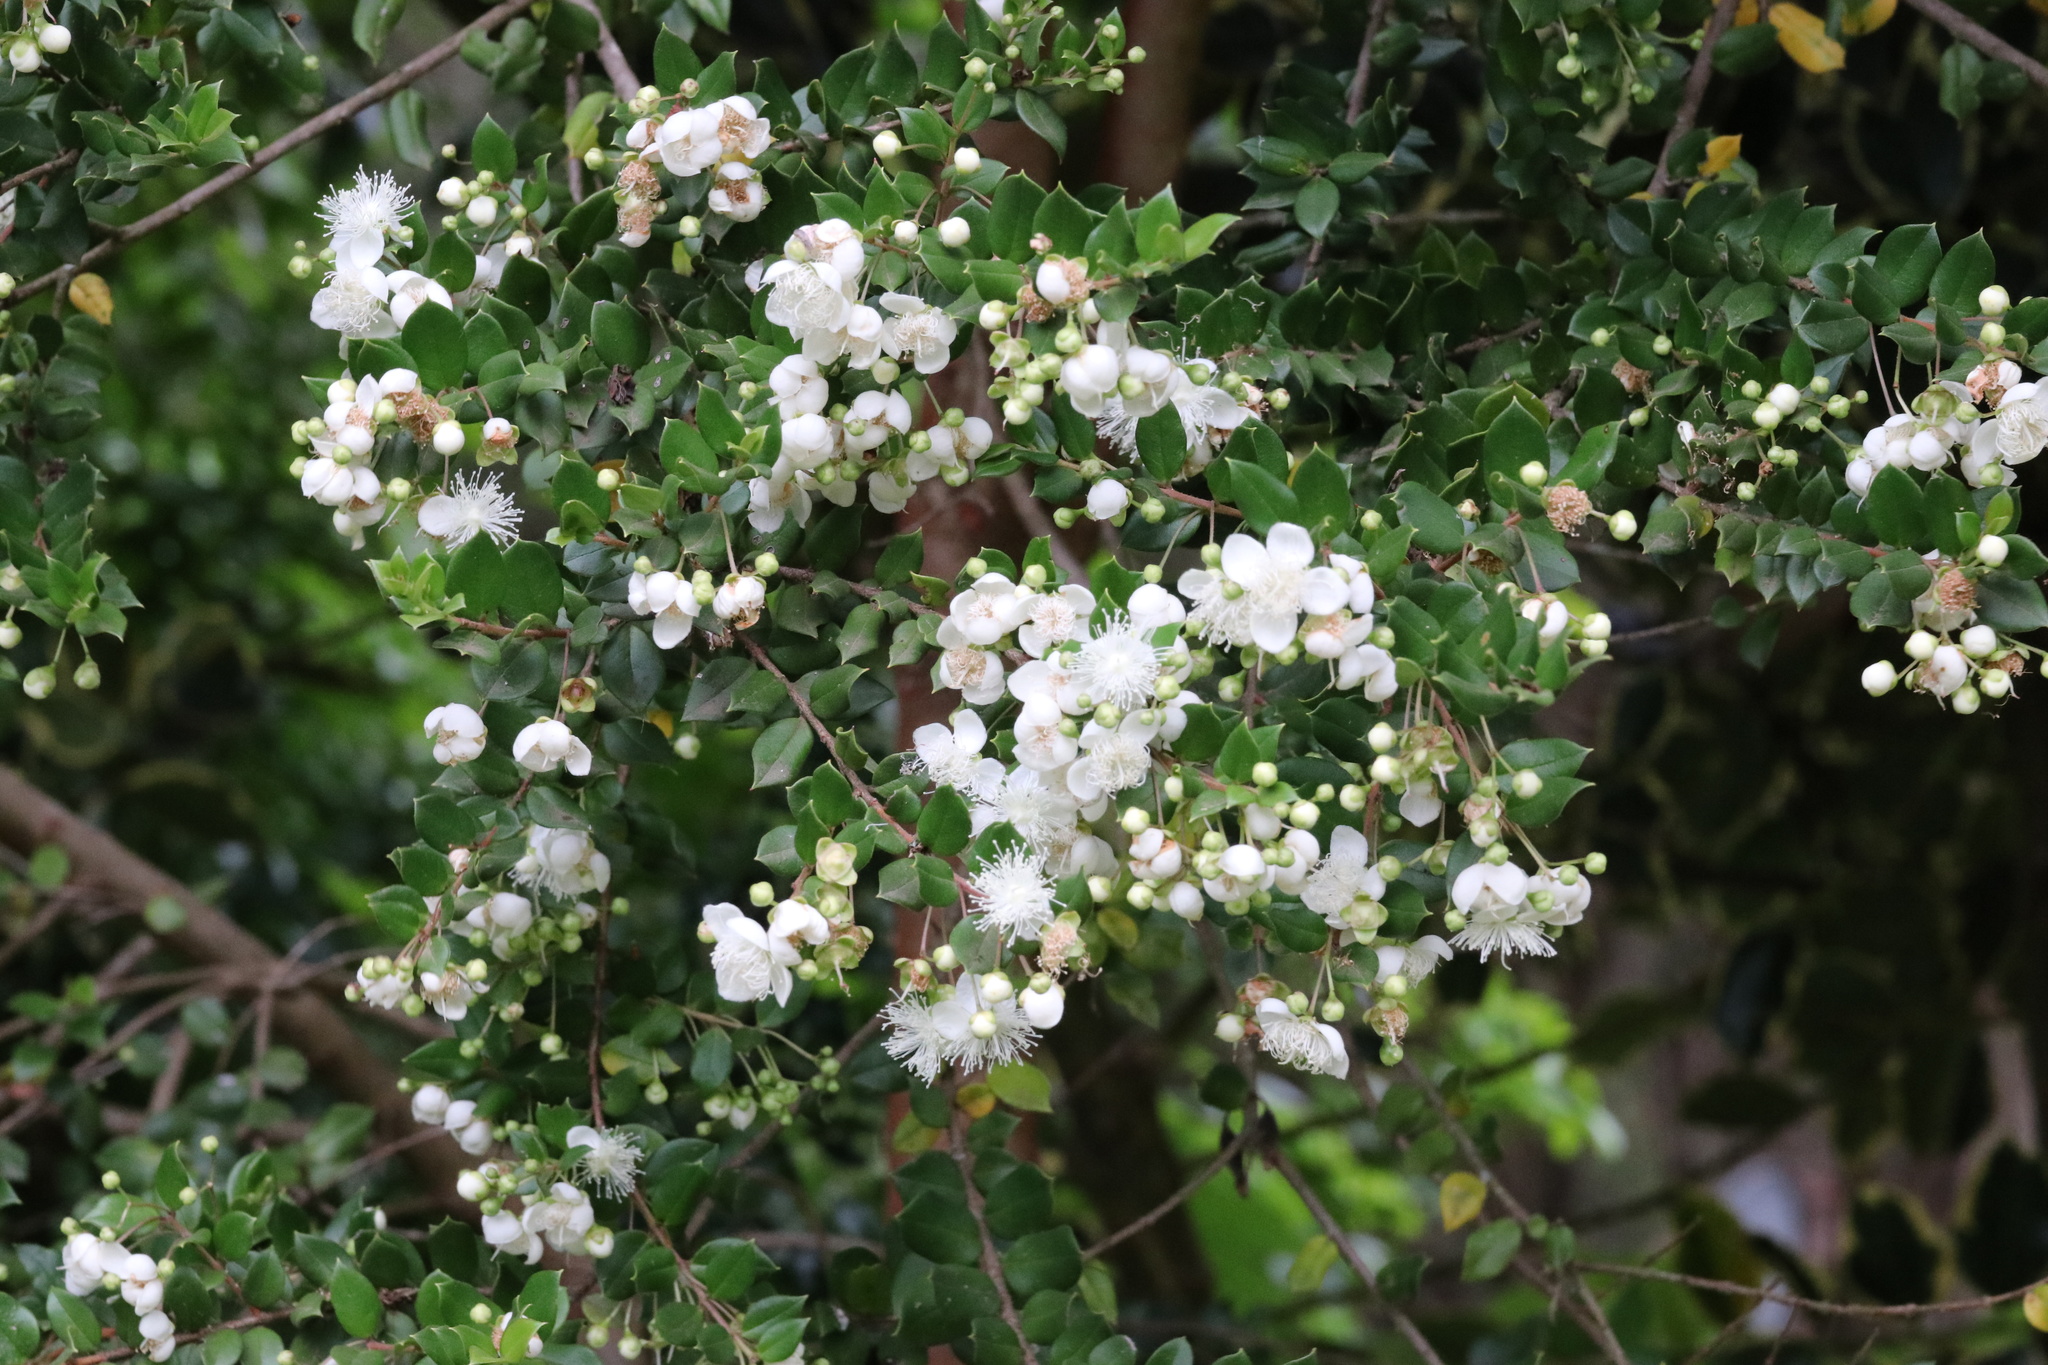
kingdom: Plantae
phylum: Tracheophyta
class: Magnoliopsida
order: Myrtales
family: Myrtaceae
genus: Luma
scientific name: Luma apiculata
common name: Chilean myrtle
